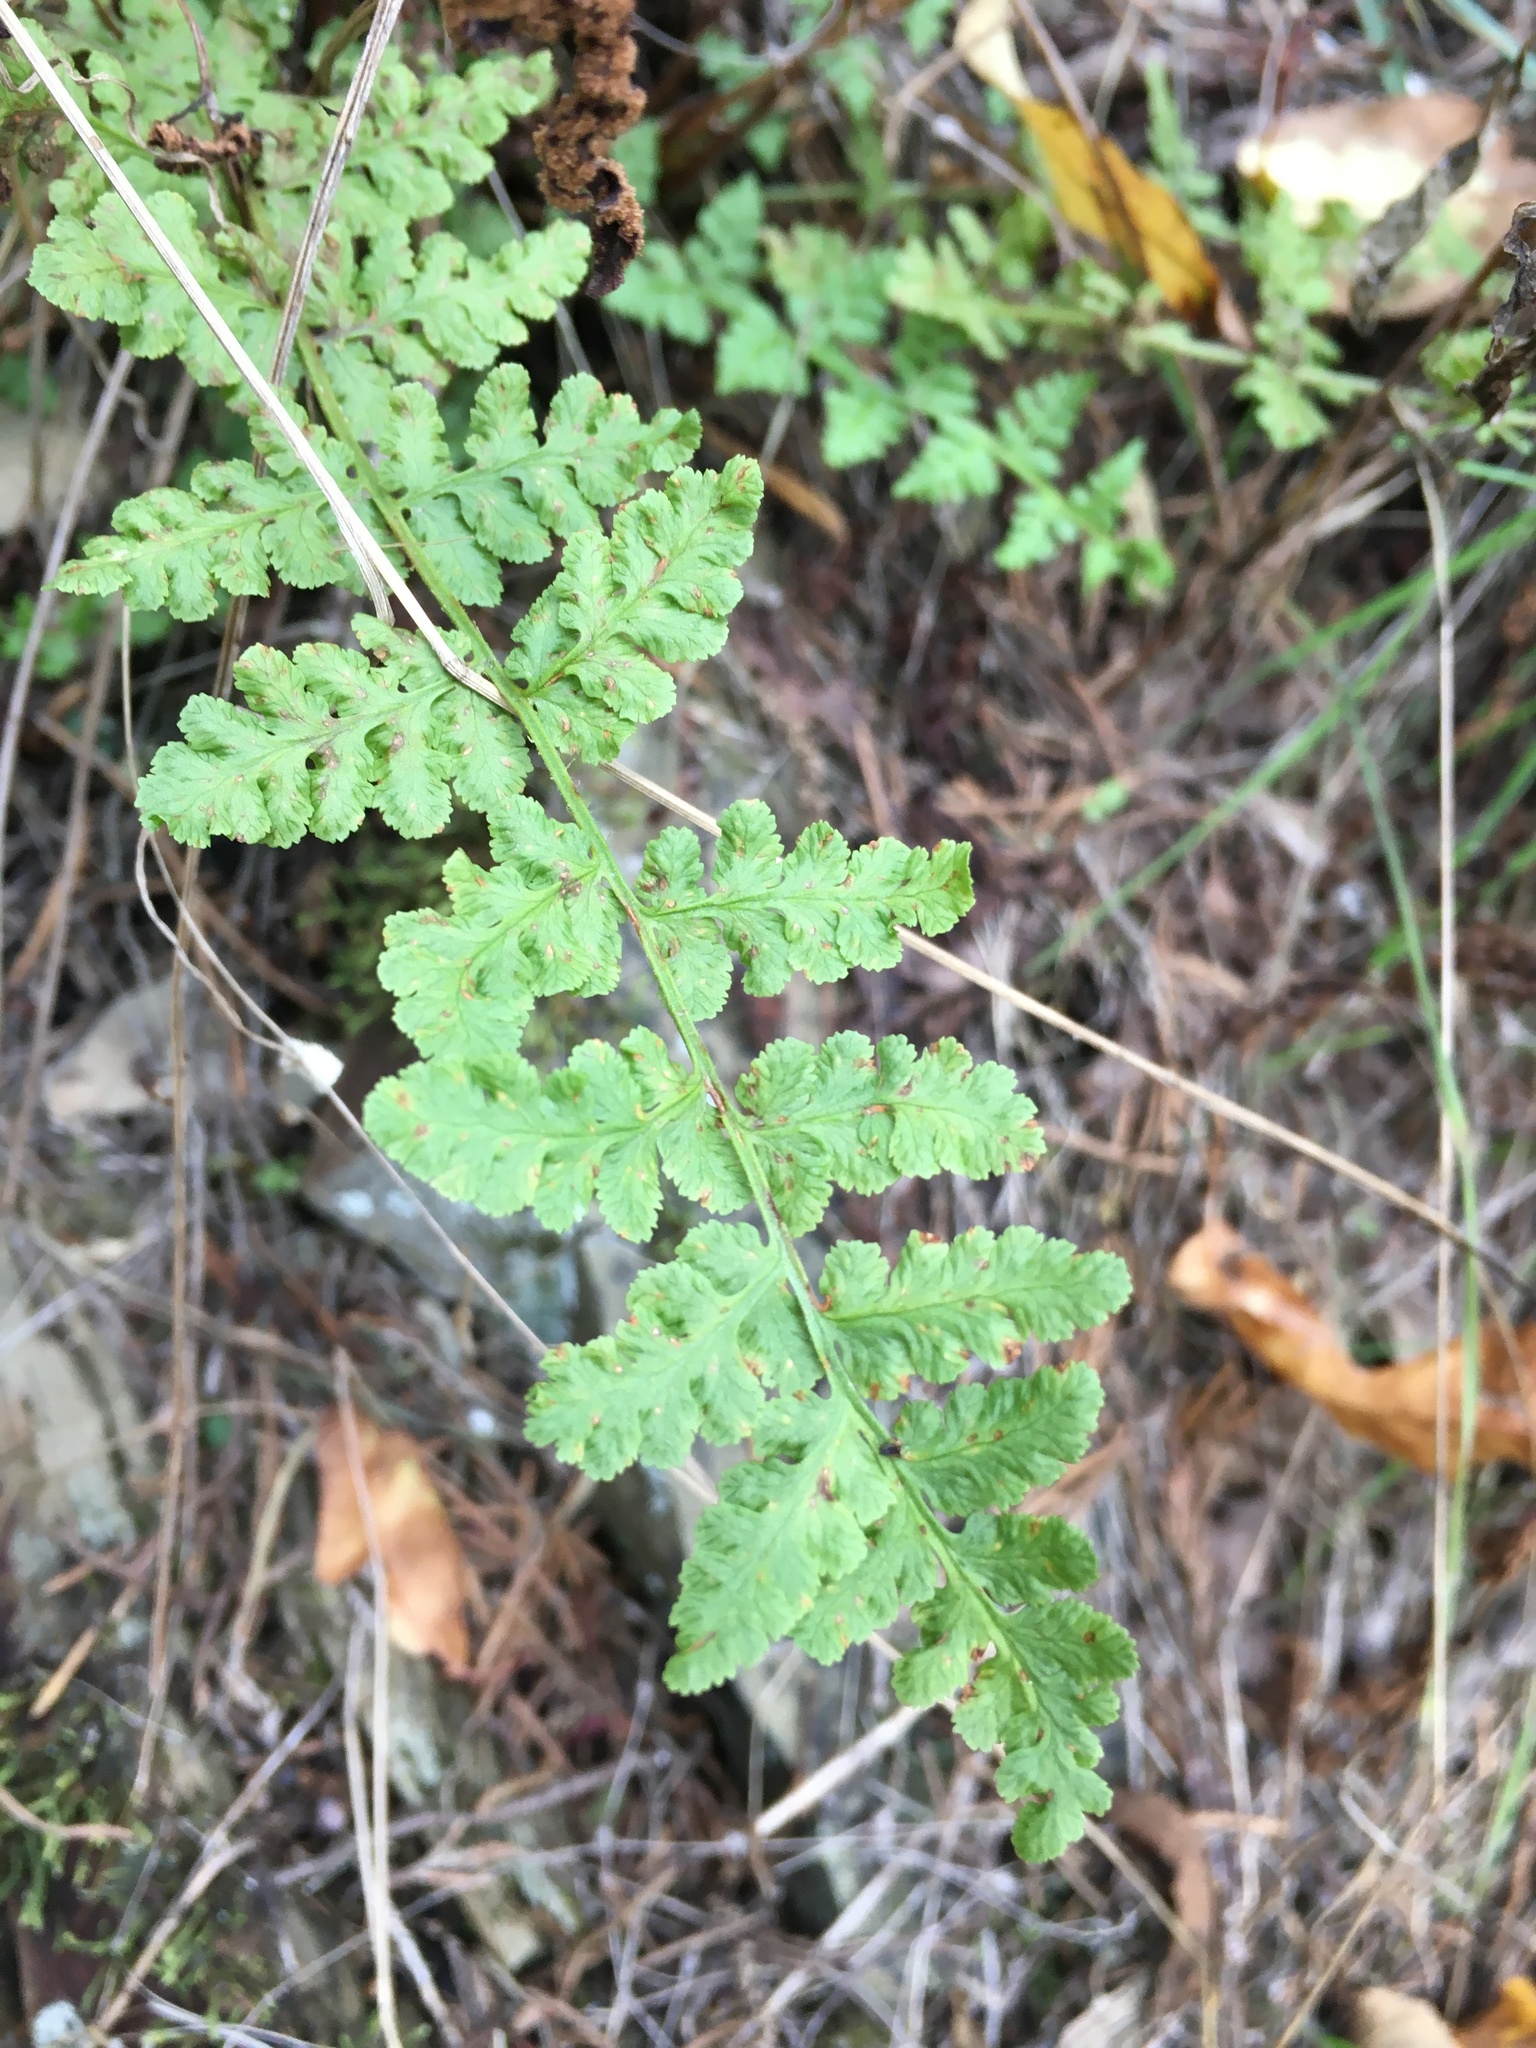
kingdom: Plantae
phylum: Tracheophyta
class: Polypodiopsida
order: Polypodiales
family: Woodsiaceae
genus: Physematium
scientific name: Physematium obtusum
